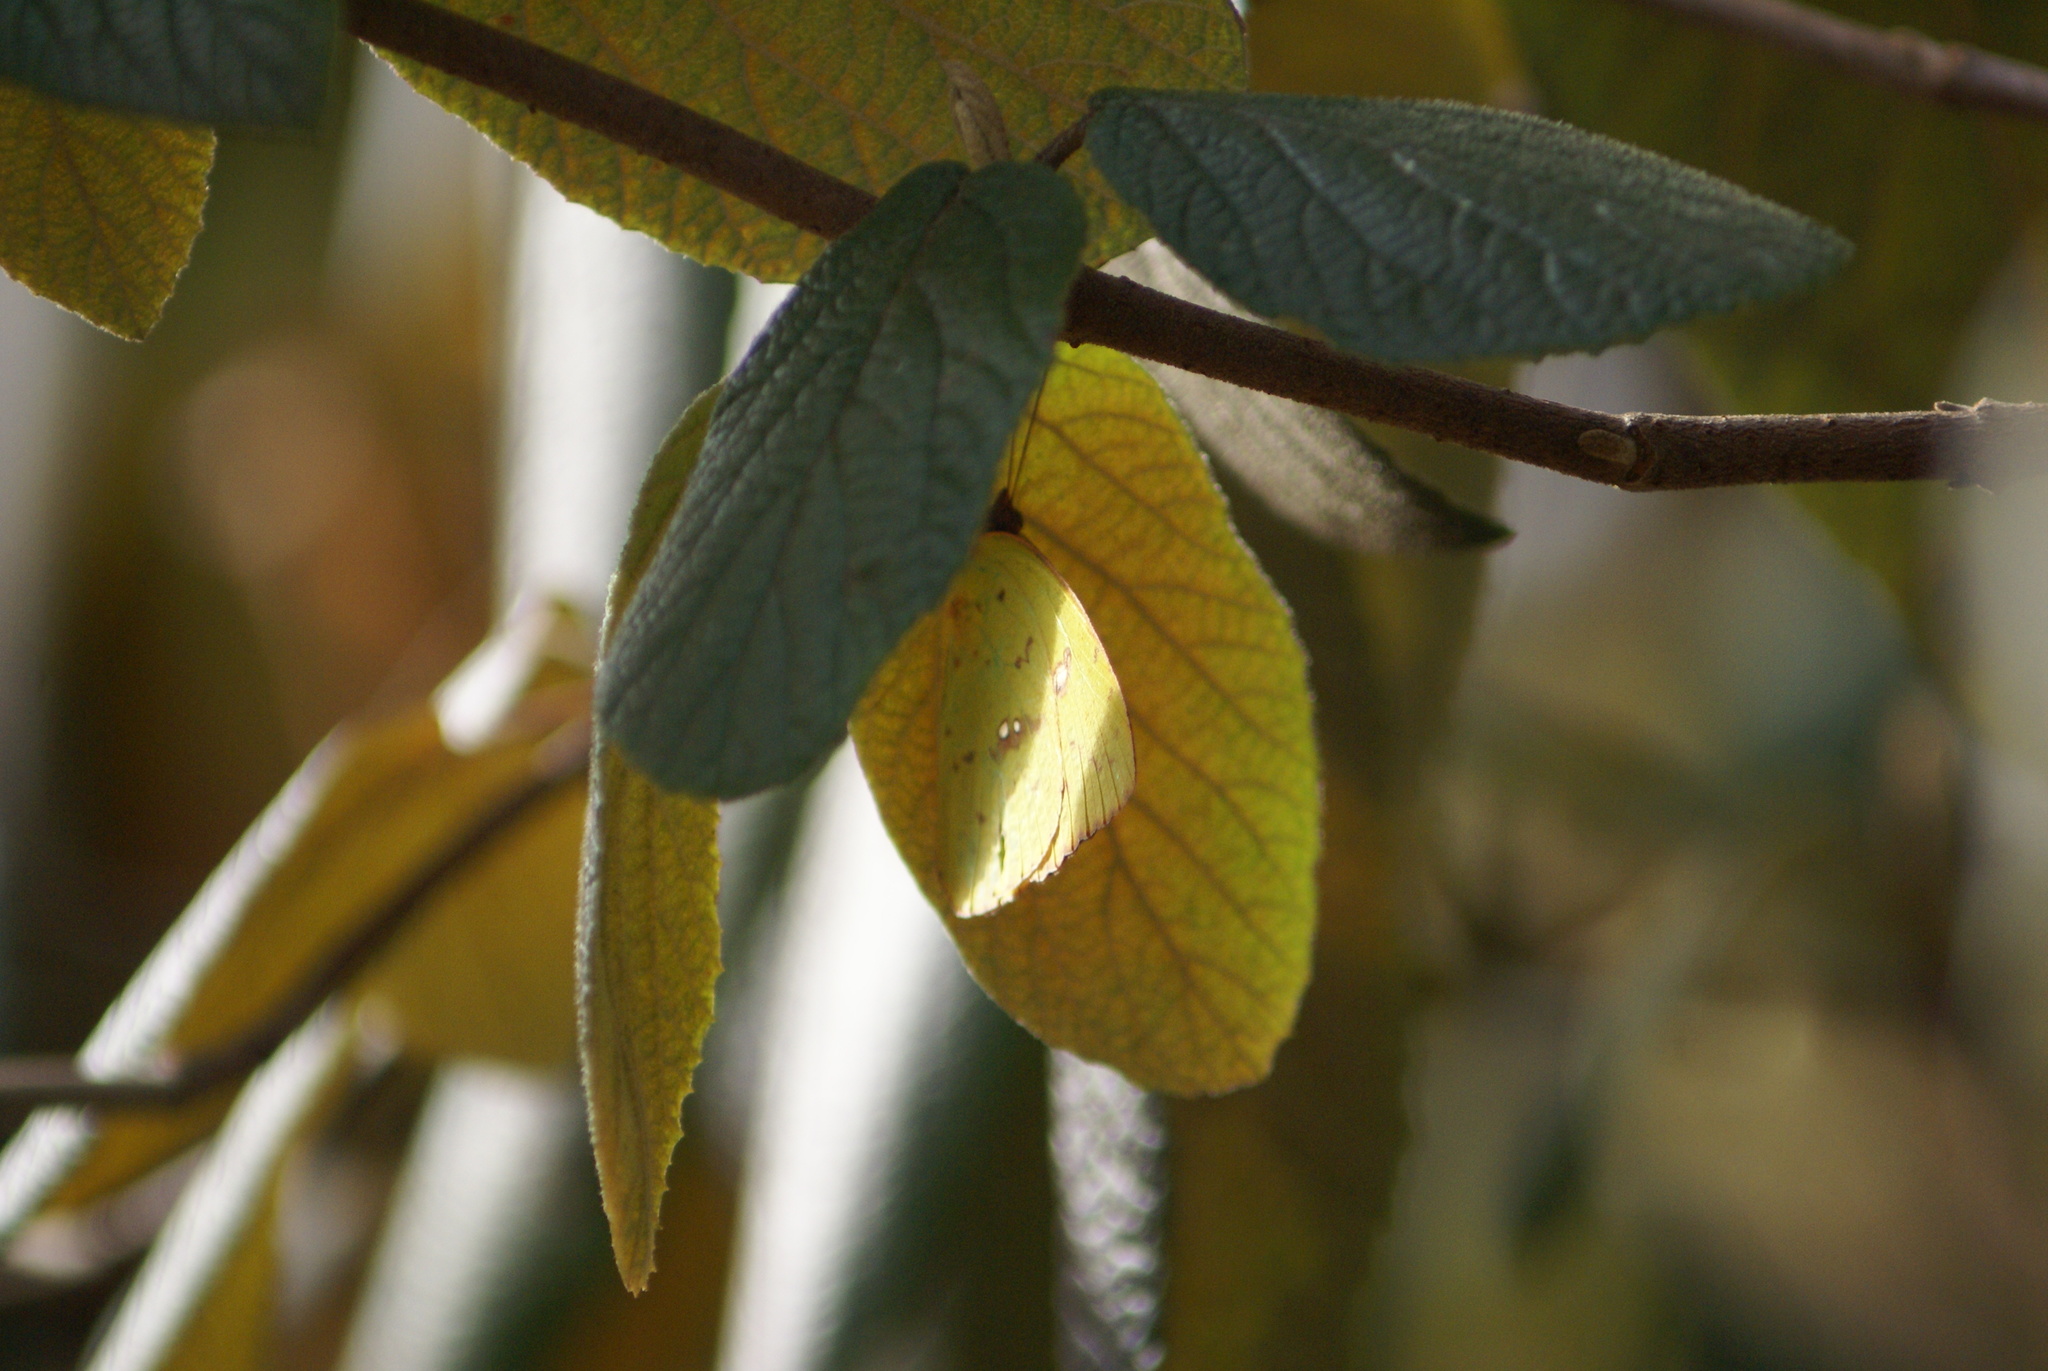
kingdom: Animalia
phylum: Arthropoda
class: Insecta
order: Lepidoptera
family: Pieridae
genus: Phoebis
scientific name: Phoebis sennae
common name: Cloudless sulphur
